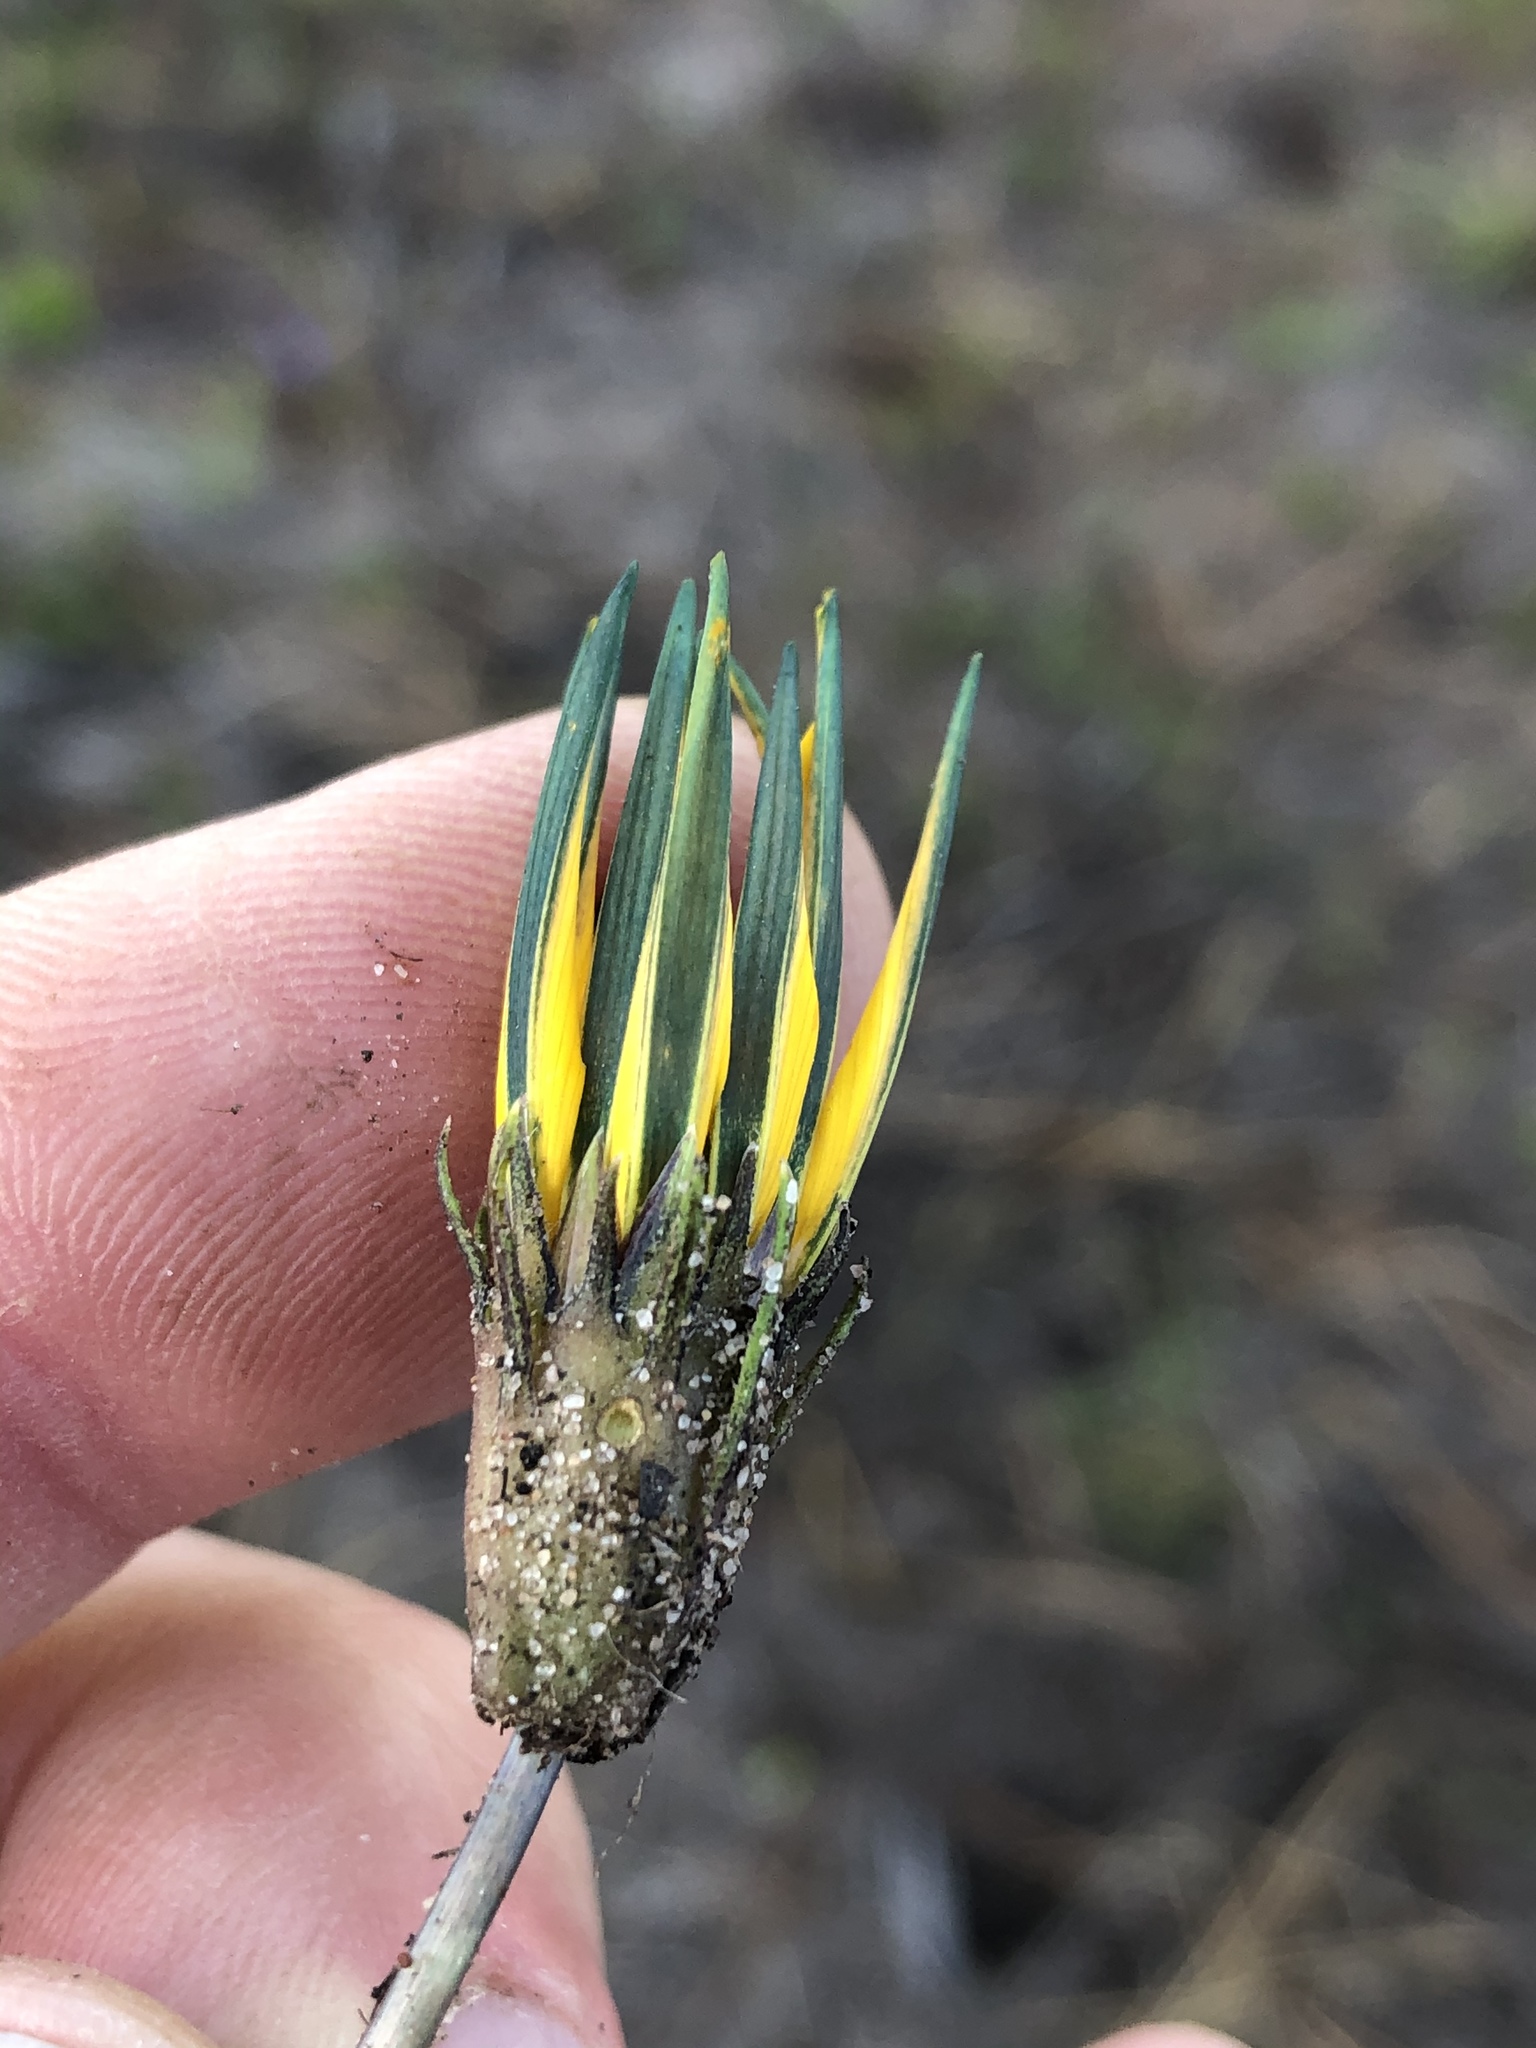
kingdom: Plantae
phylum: Tracheophyta
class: Magnoliopsida
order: Asterales
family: Asteraceae
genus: Gazania
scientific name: Gazania linearis
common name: Treasureflower
